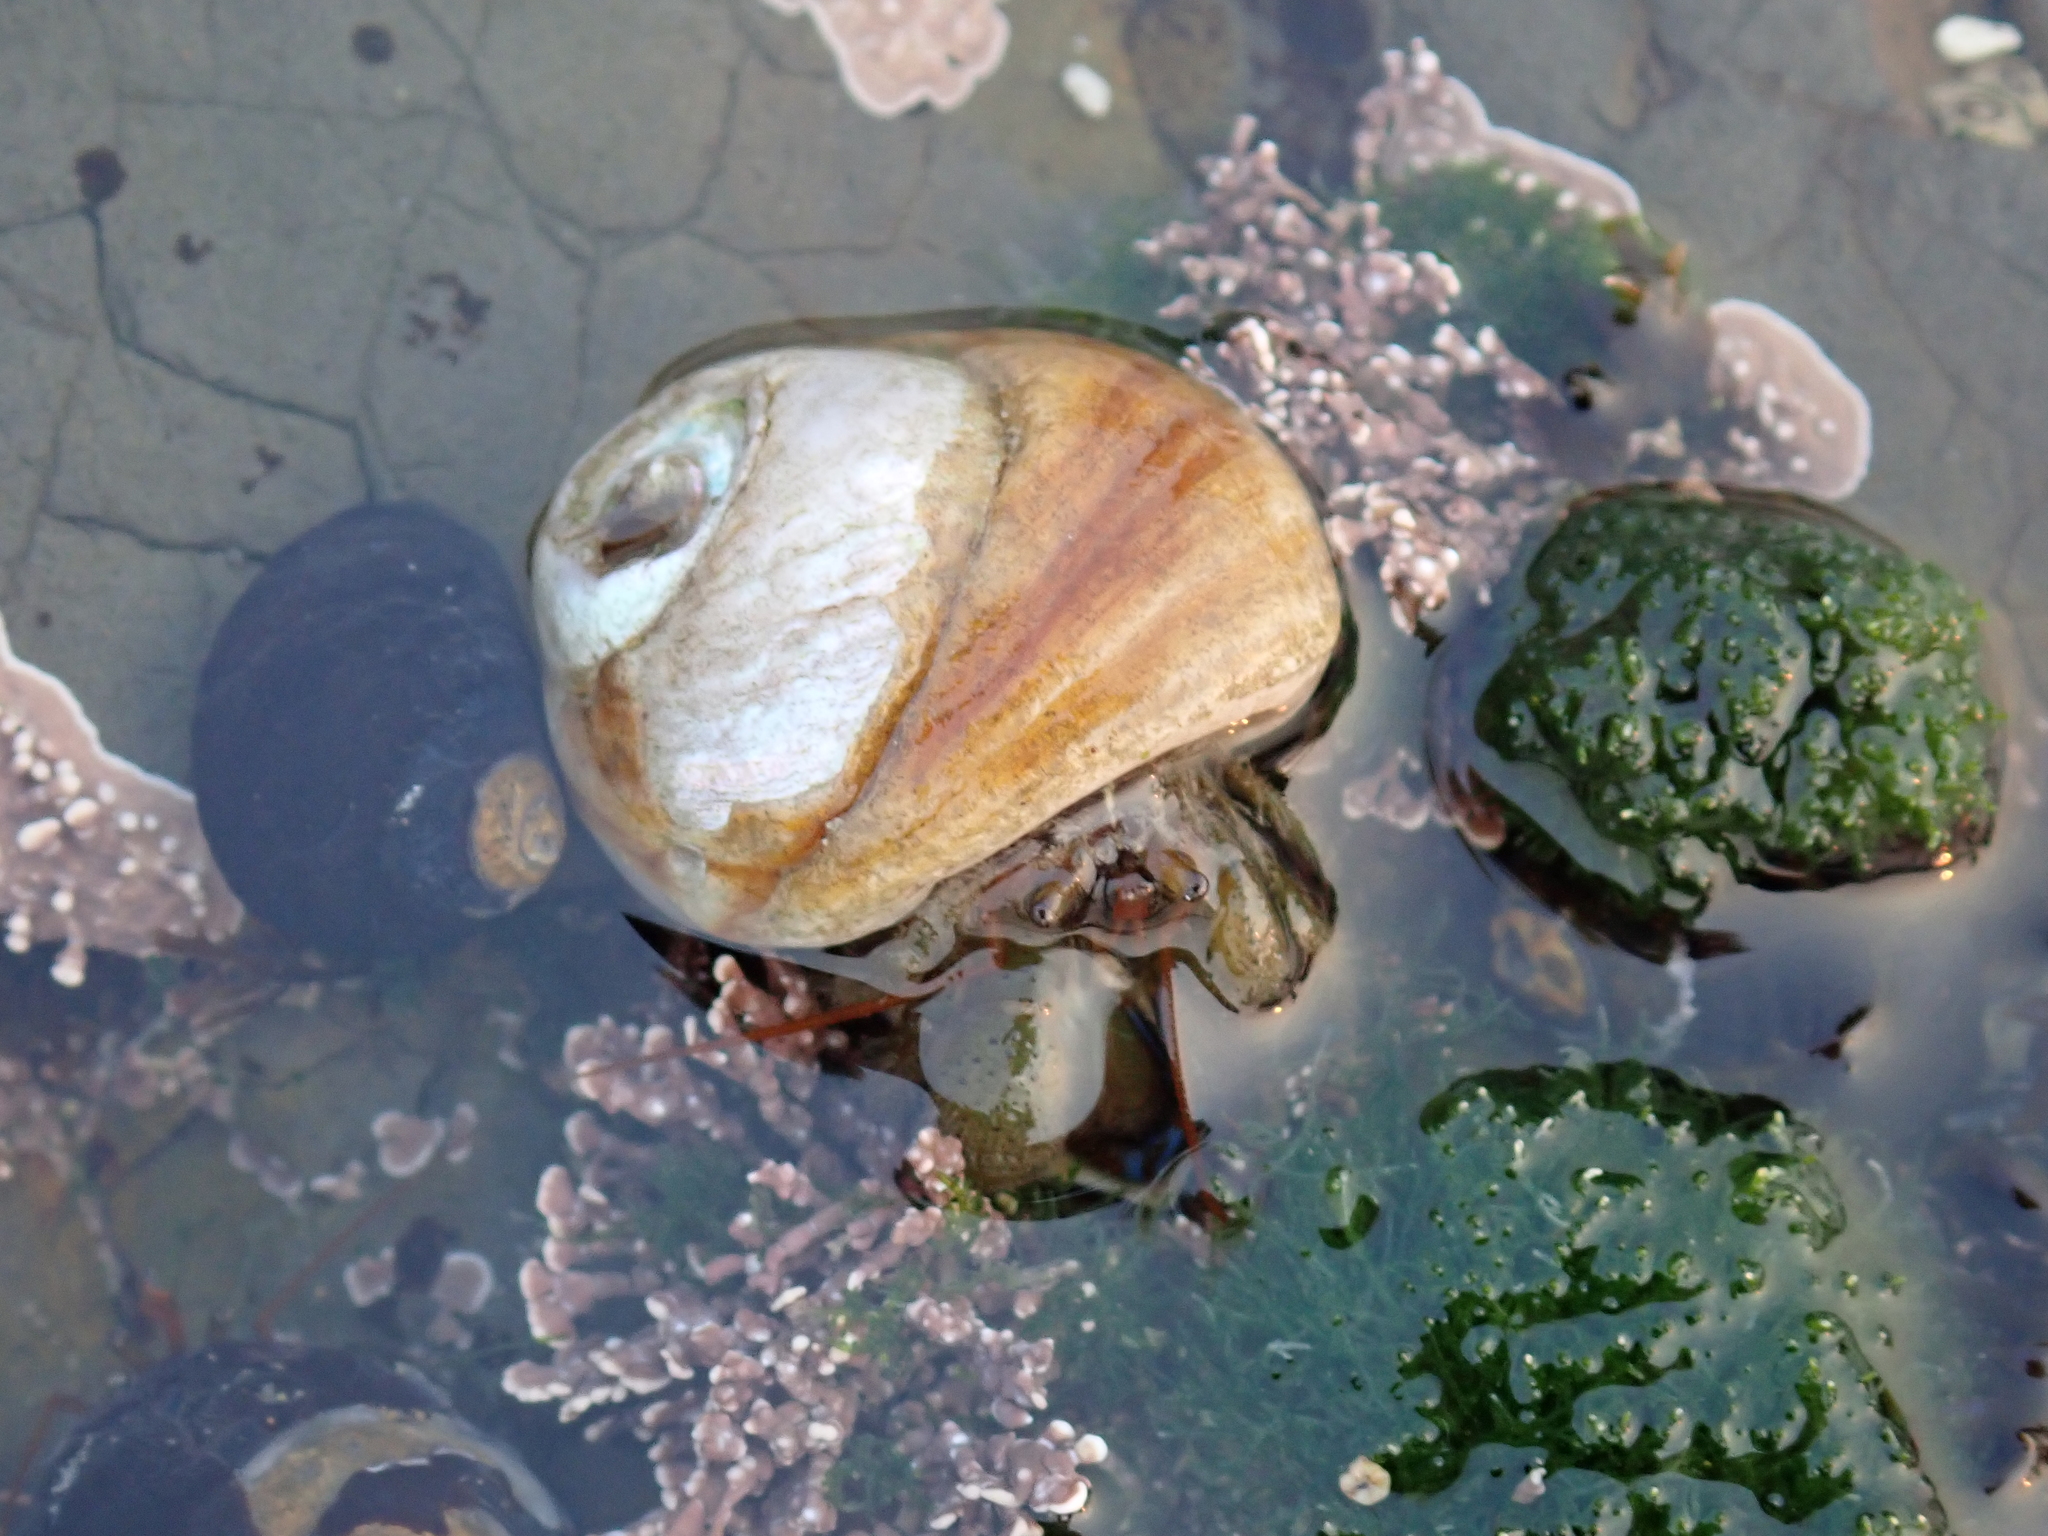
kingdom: Animalia
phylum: Arthropoda
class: Malacostraca
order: Decapoda
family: Paguridae
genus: Pagurus
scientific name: Pagurus samuelis
